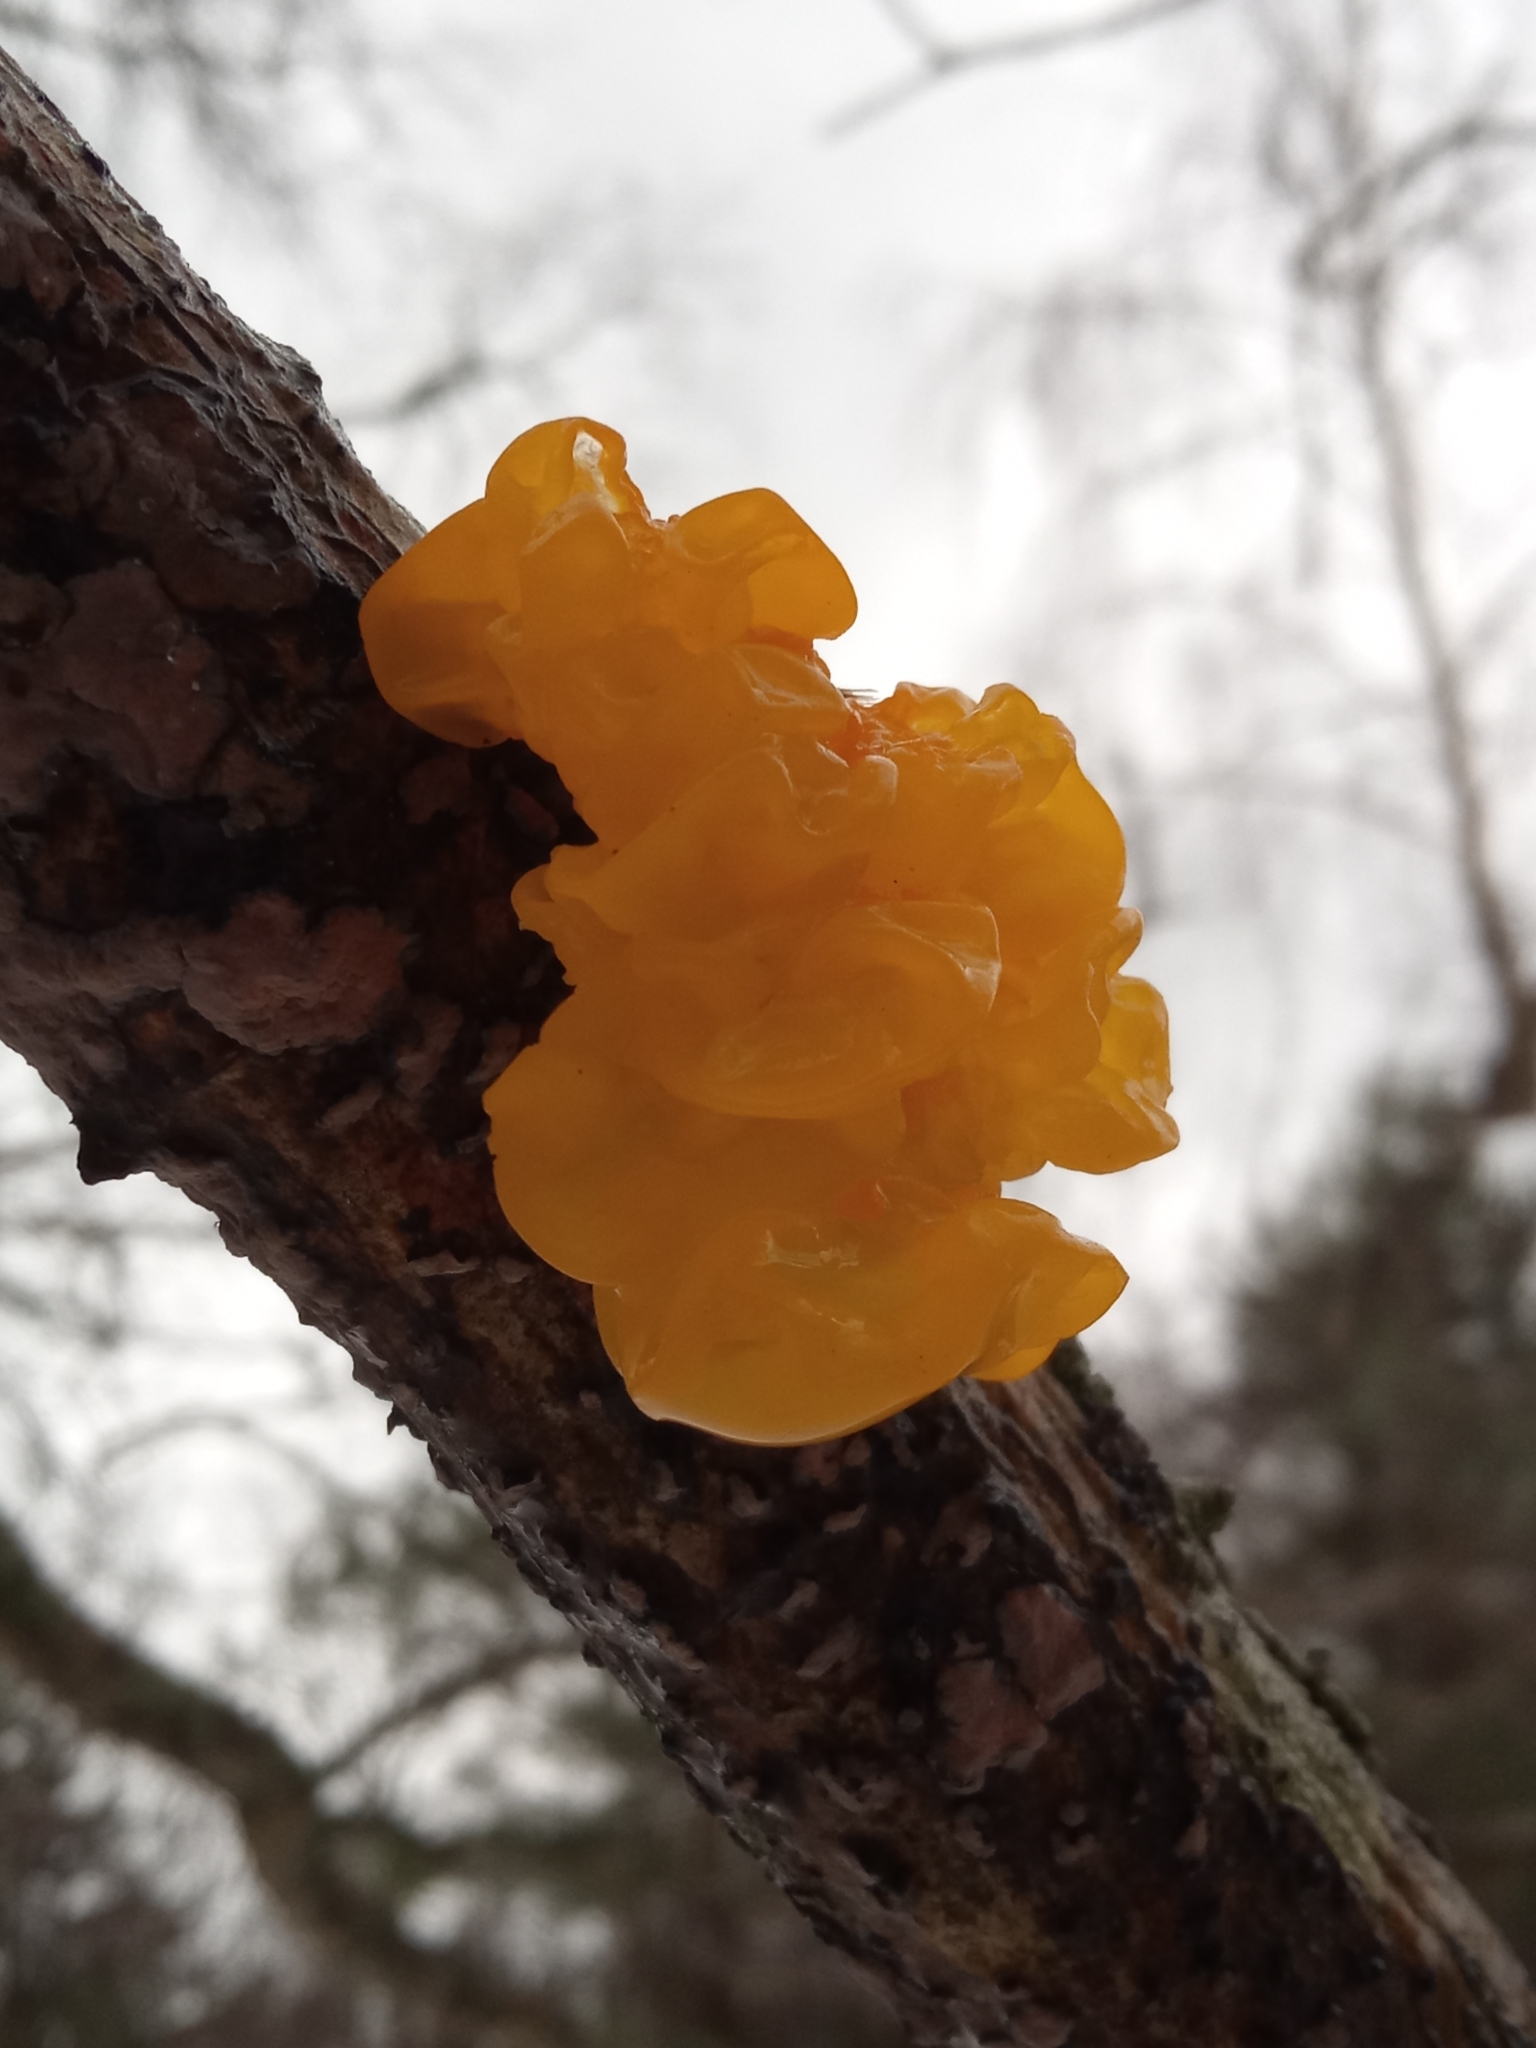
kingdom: Fungi
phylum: Basidiomycota
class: Tremellomycetes
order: Tremellales
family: Tremellaceae
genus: Tremella
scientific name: Tremella mesenterica
